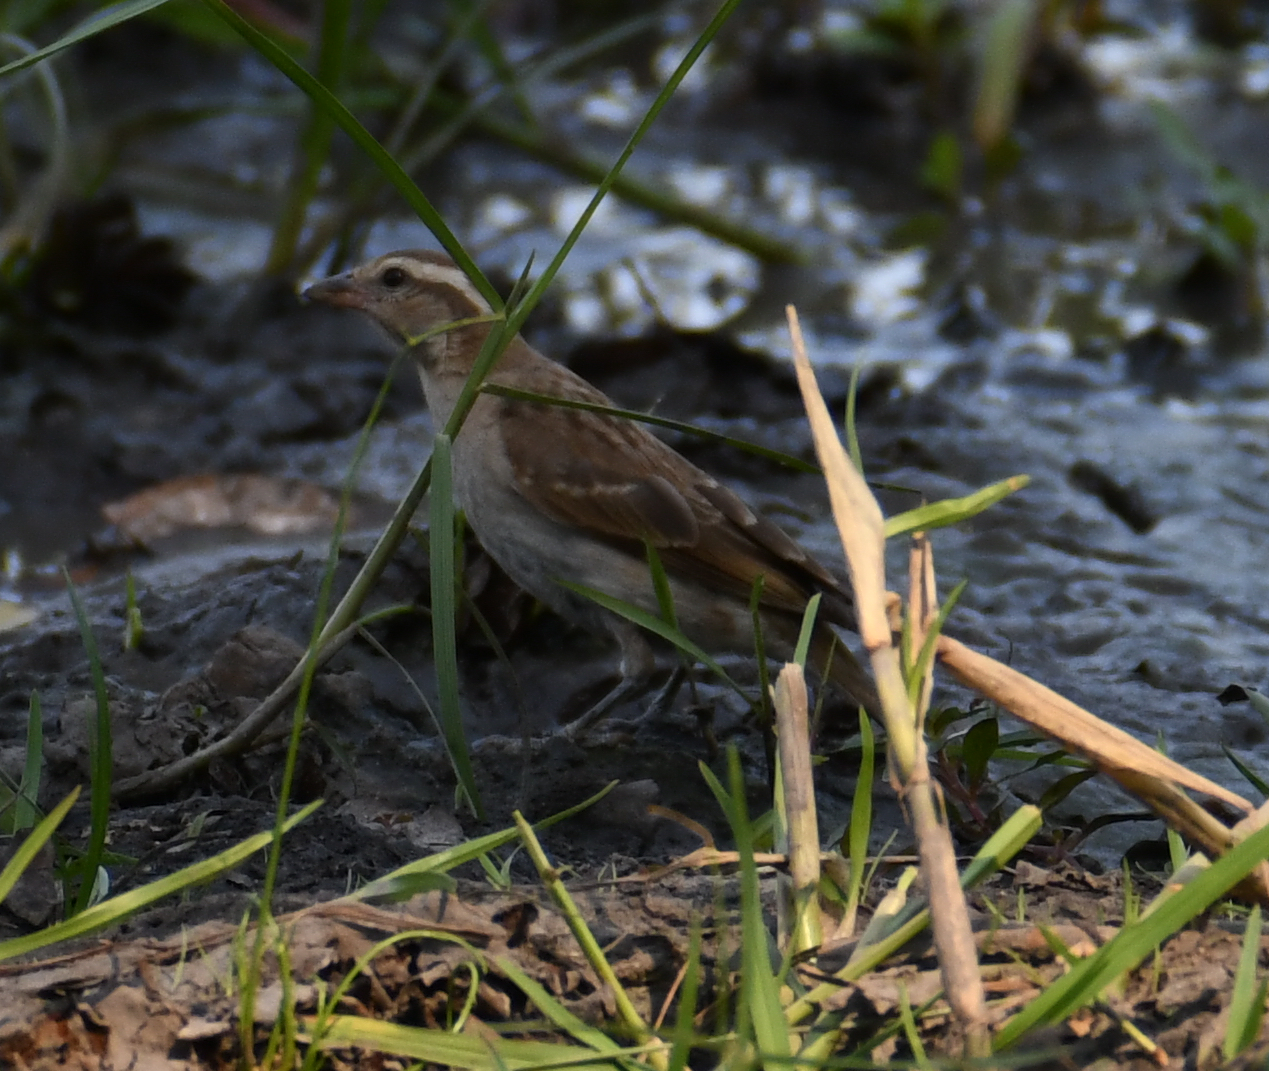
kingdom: Animalia
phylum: Chordata
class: Aves
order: Passeriformes
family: Passeridae
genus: Gymnoris
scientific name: Gymnoris superciliaris
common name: Yellow-throated petronia
